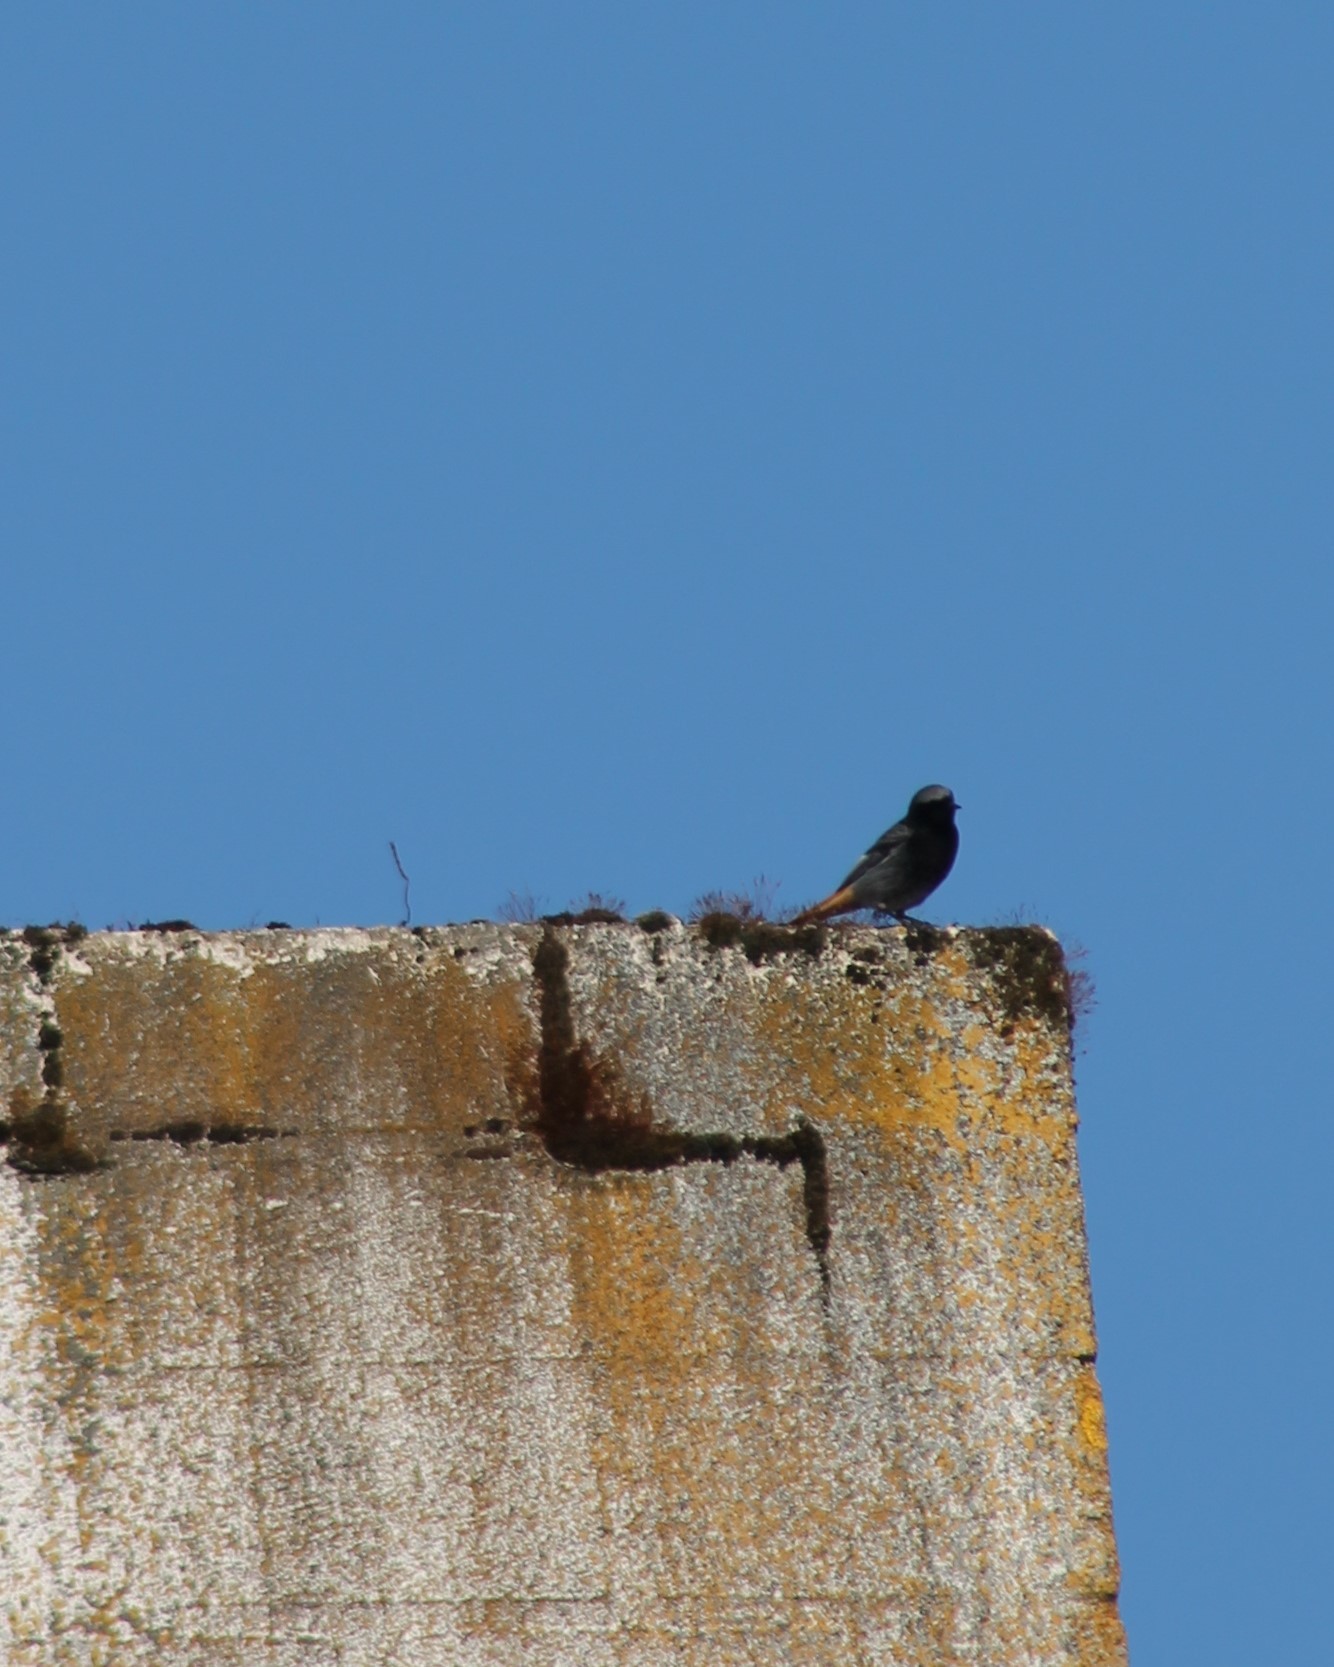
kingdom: Animalia
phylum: Chordata
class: Aves
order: Passeriformes
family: Muscicapidae
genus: Phoenicurus
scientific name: Phoenicurus ochruros
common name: Black redstart
